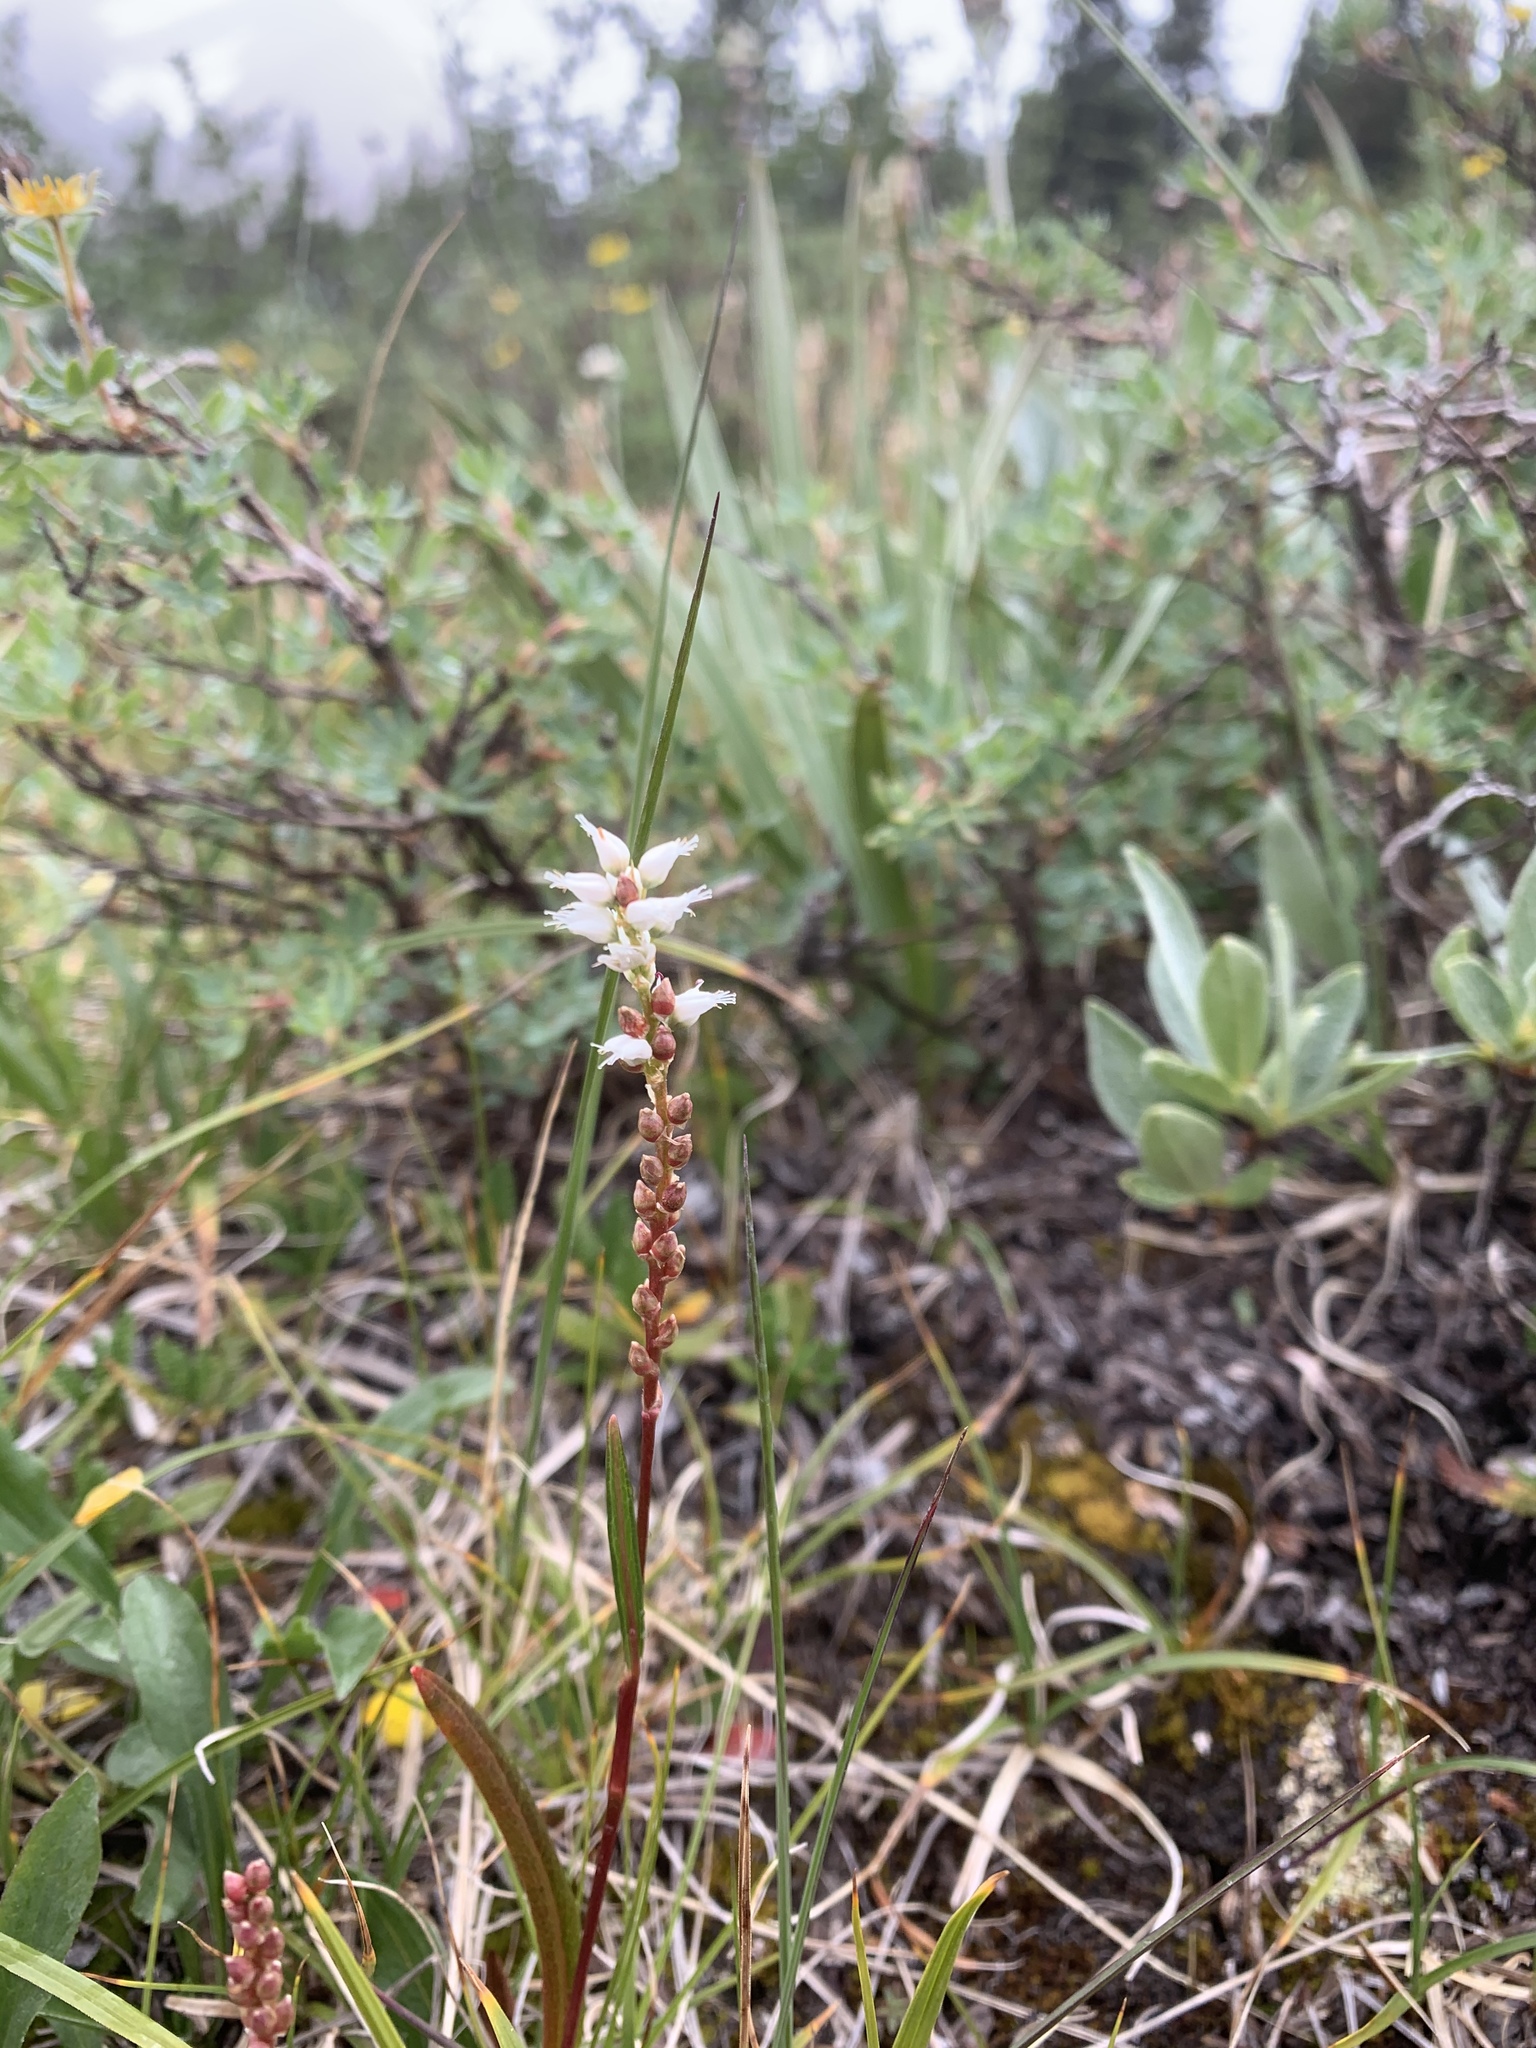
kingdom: Plantae
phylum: Tracheophyta
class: Magnoliopsida
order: Caryophyllales
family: Polygonaceae
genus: Bistorta
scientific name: Bistorta vivipara
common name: Alpine bistort
